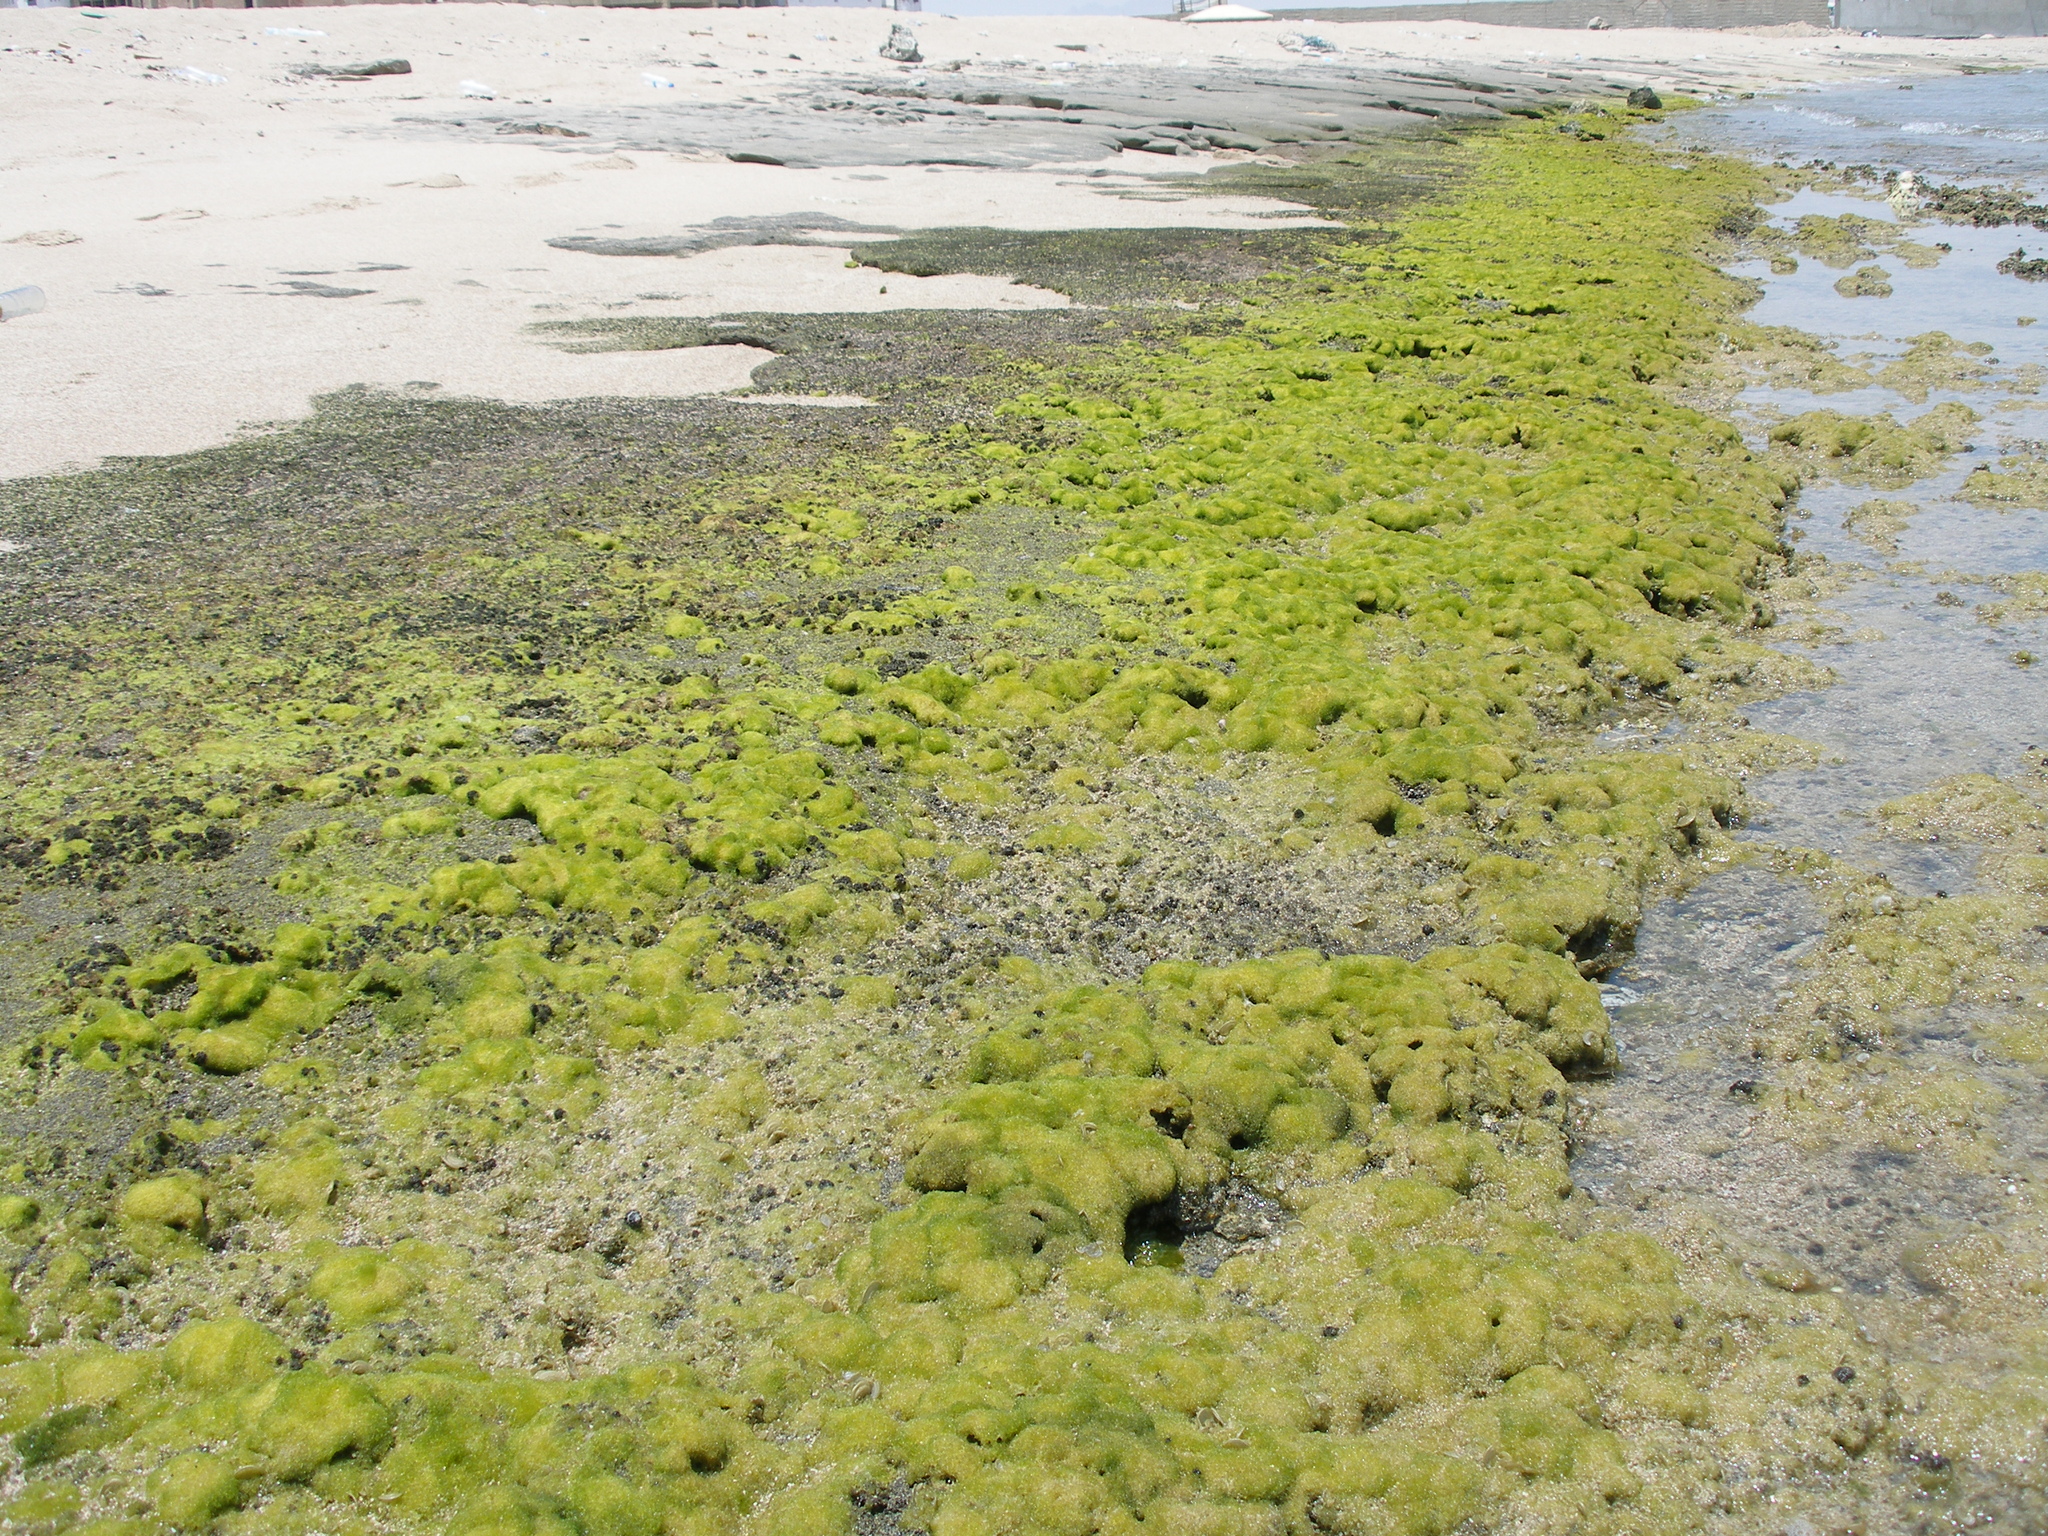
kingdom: Chromista
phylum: Ochrophyta
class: Xanthophyceae
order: Vaucheriales
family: Vaucheriaceae
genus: Vaucheria
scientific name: Vaucheria
